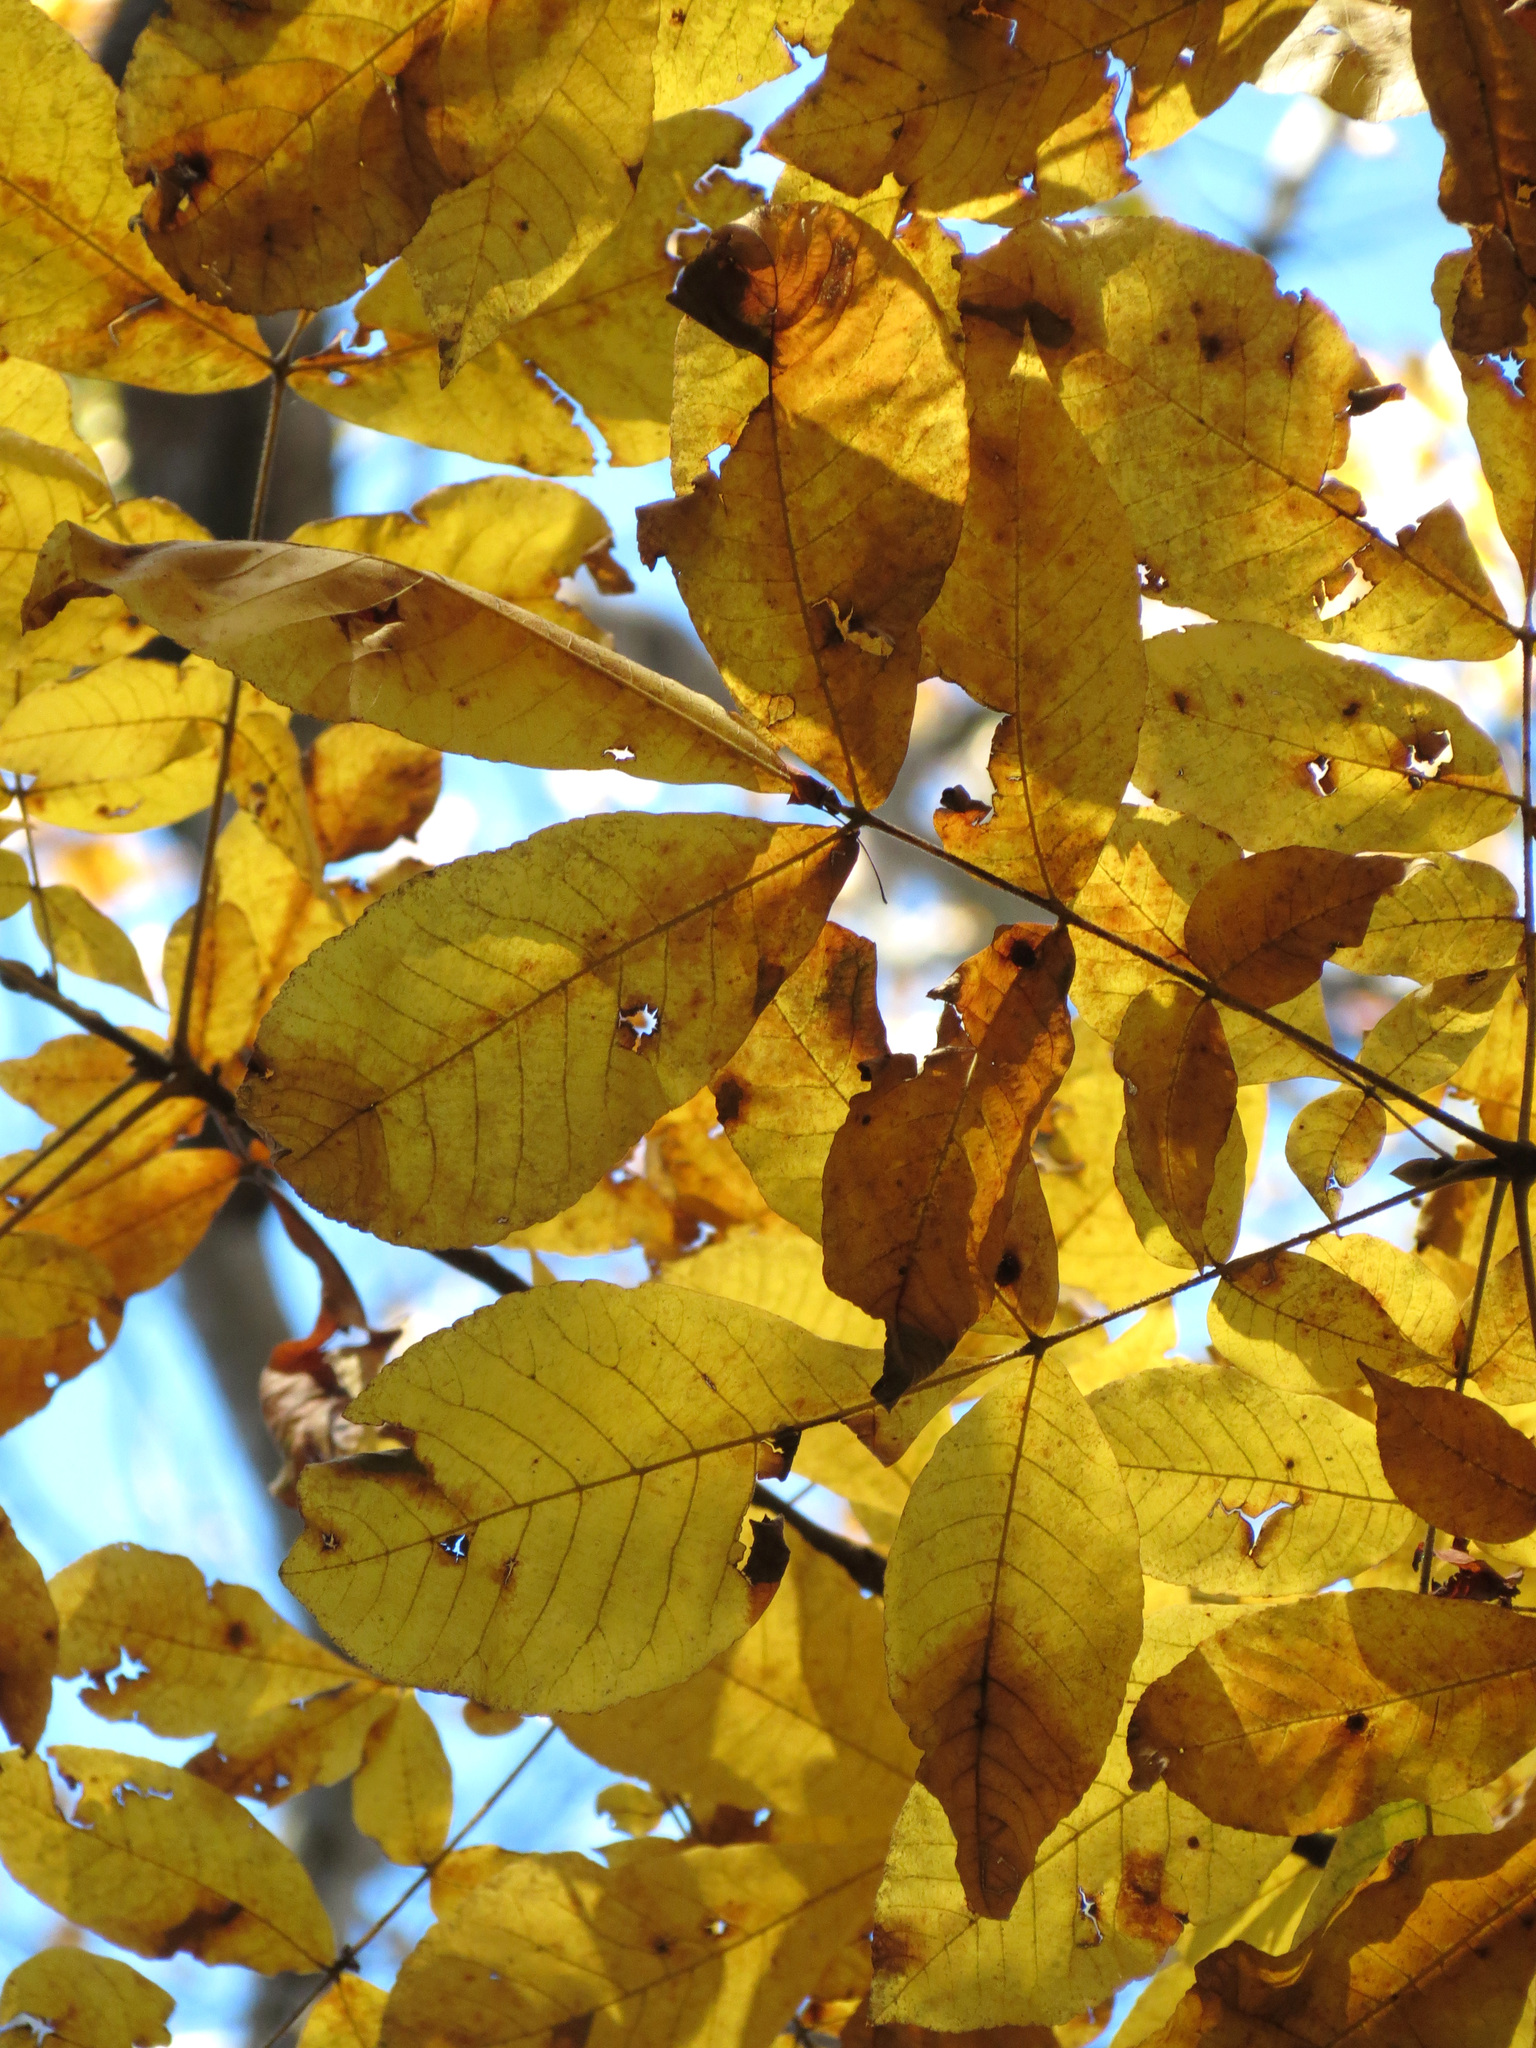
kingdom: Plantae
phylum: Tracheophyta
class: Magnoliopsida
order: Fagales
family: Juglandaceae
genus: Carya
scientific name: Carya alba
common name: Mockernut hickory
